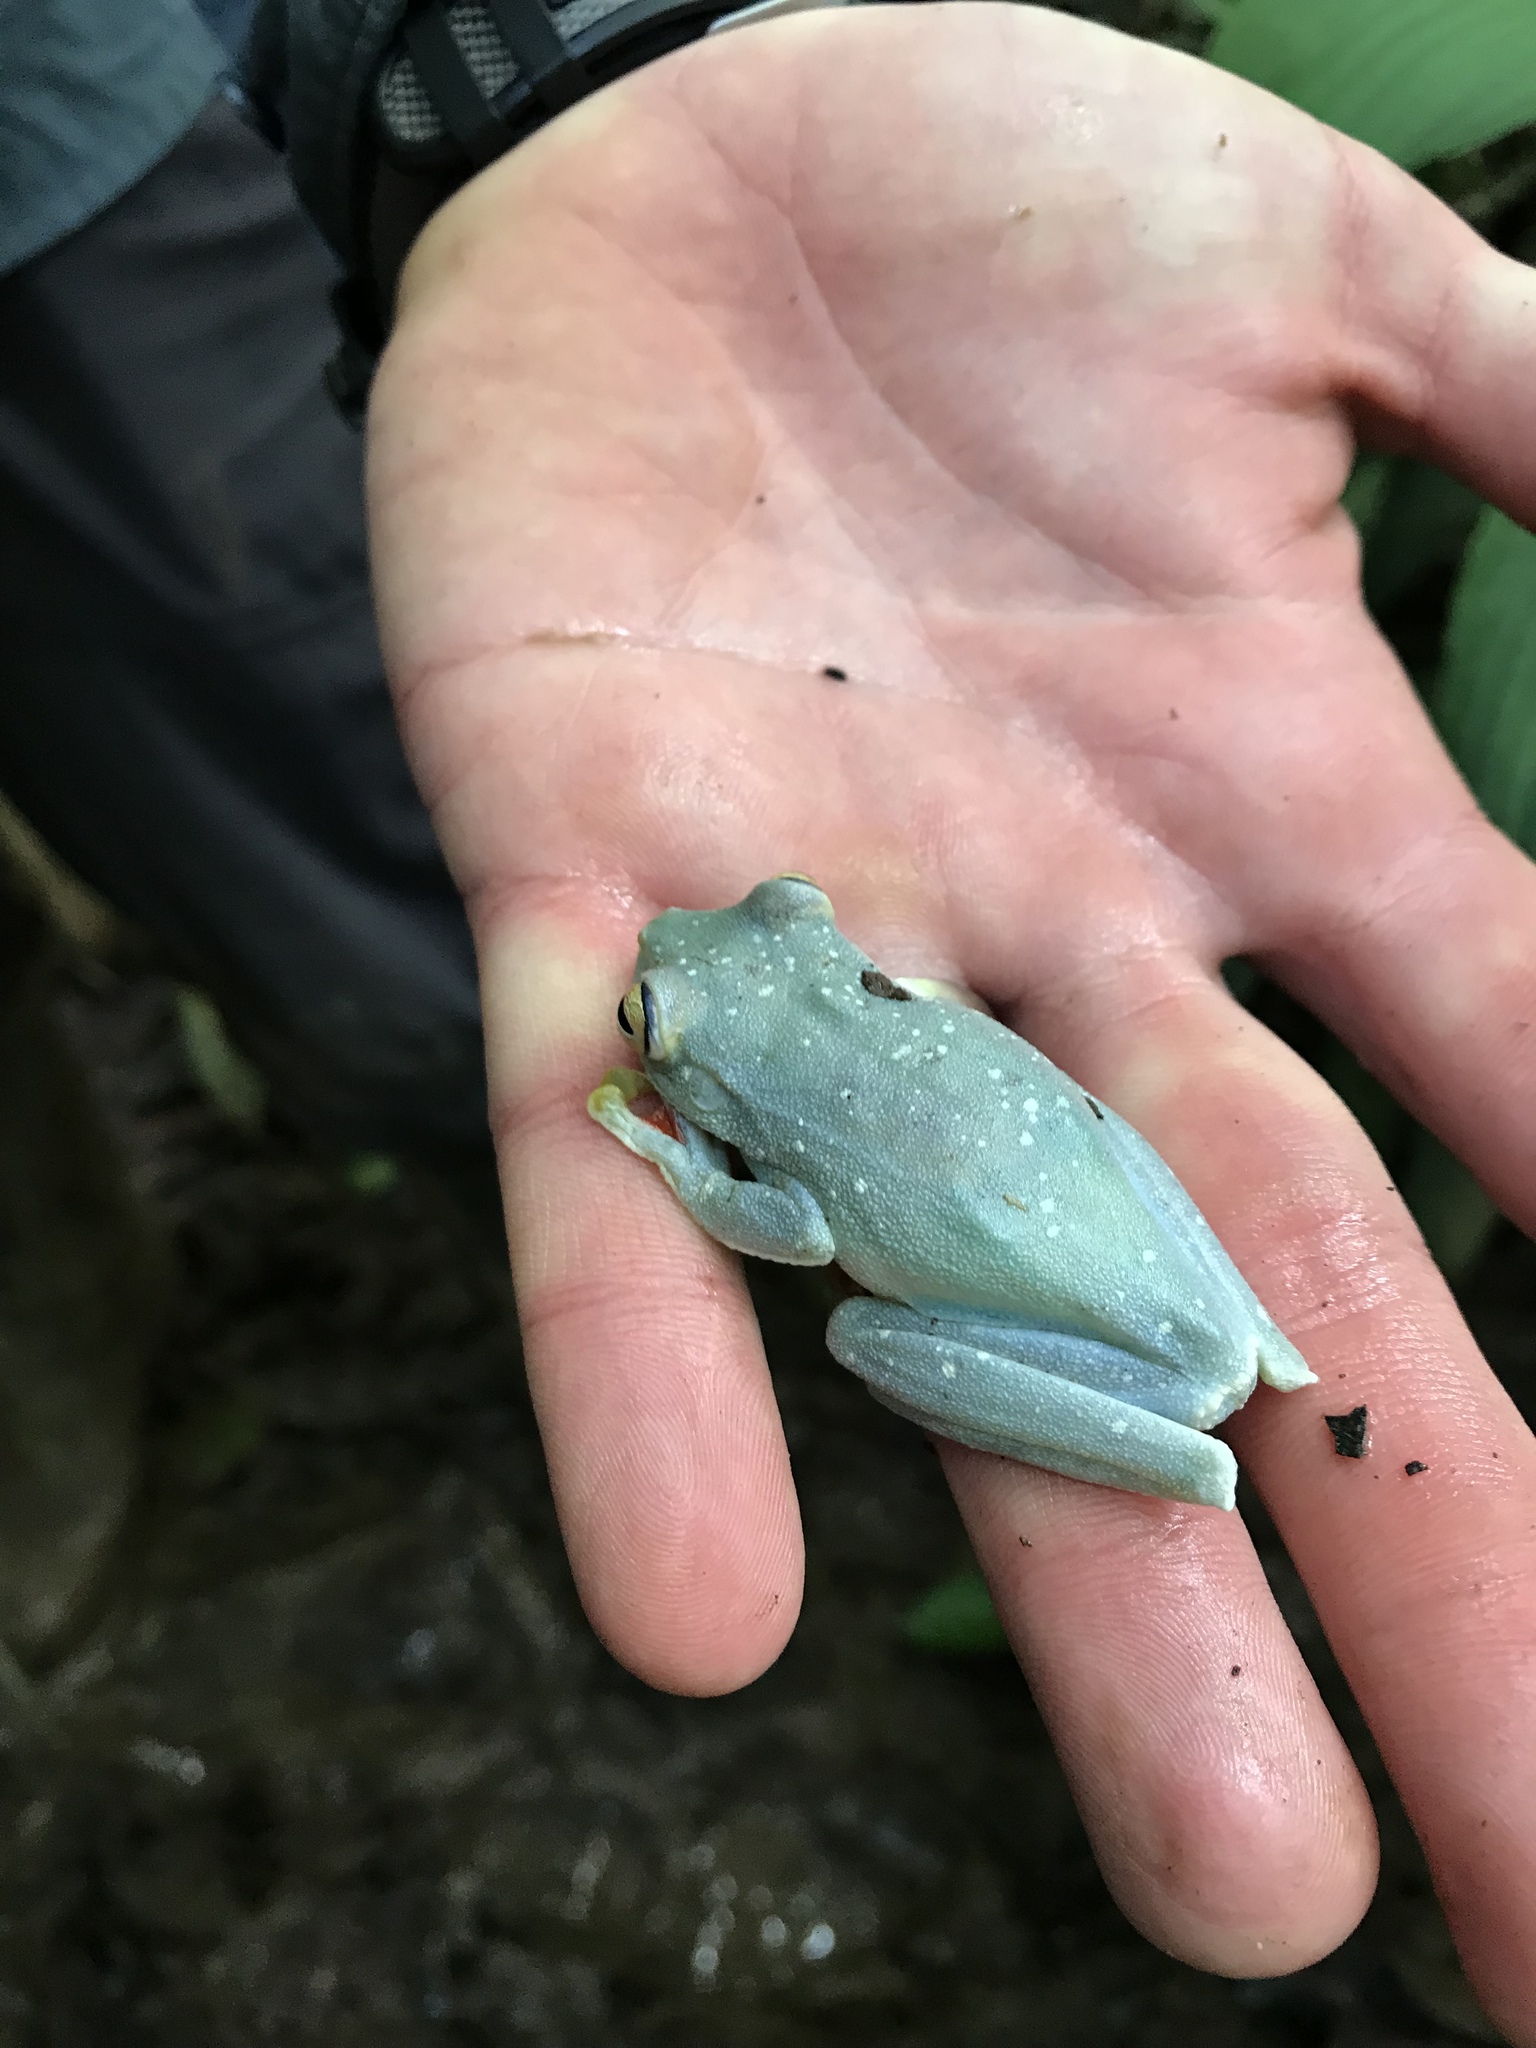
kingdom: Animalia
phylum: Chordata
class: Amphibia
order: Anura
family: Hylidae
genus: Boana
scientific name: Boana rufitela
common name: Canal zone treefrog
